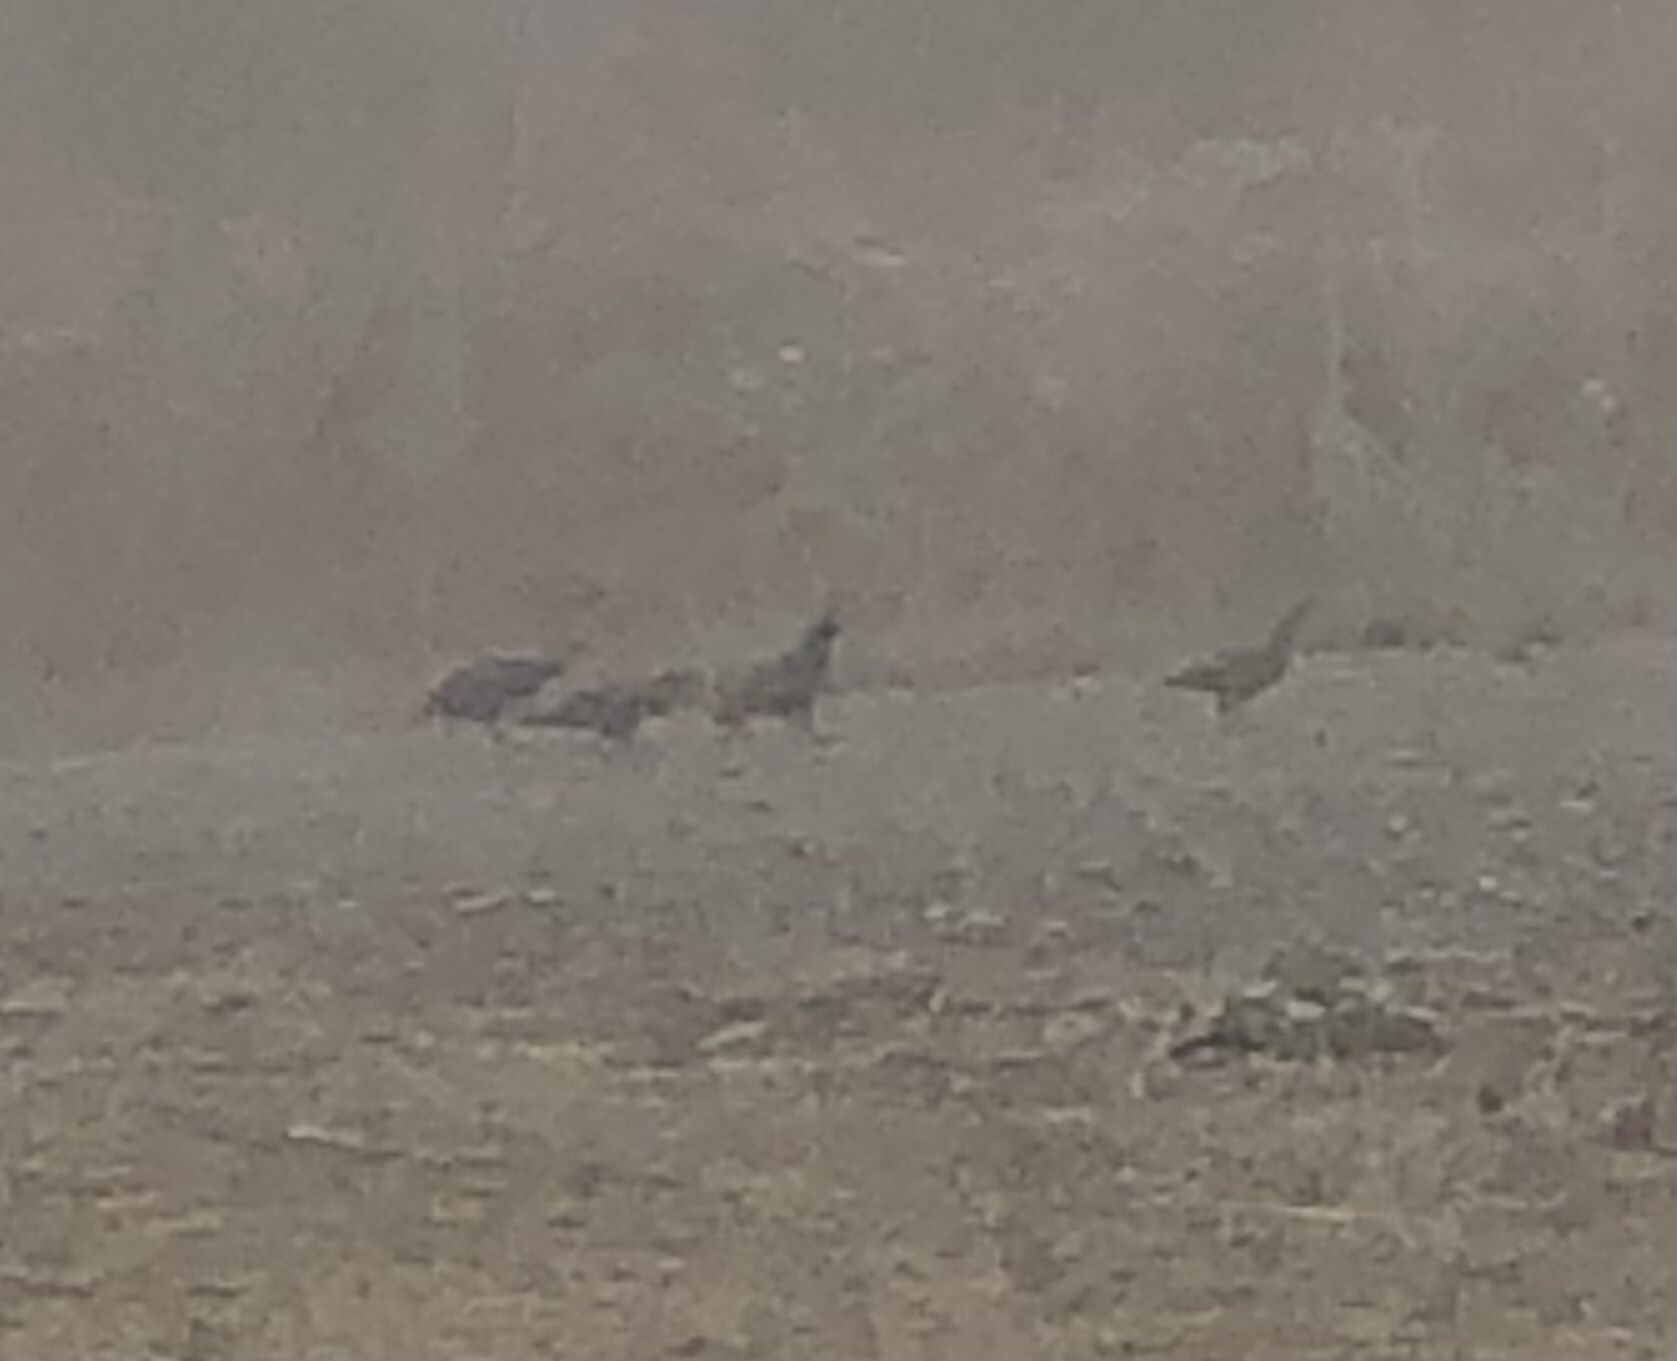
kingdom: Animalia
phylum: Chordata
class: Aves
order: Galliformes
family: Odontophoridae
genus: Callipepla
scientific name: Callipepla californica
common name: California quail
